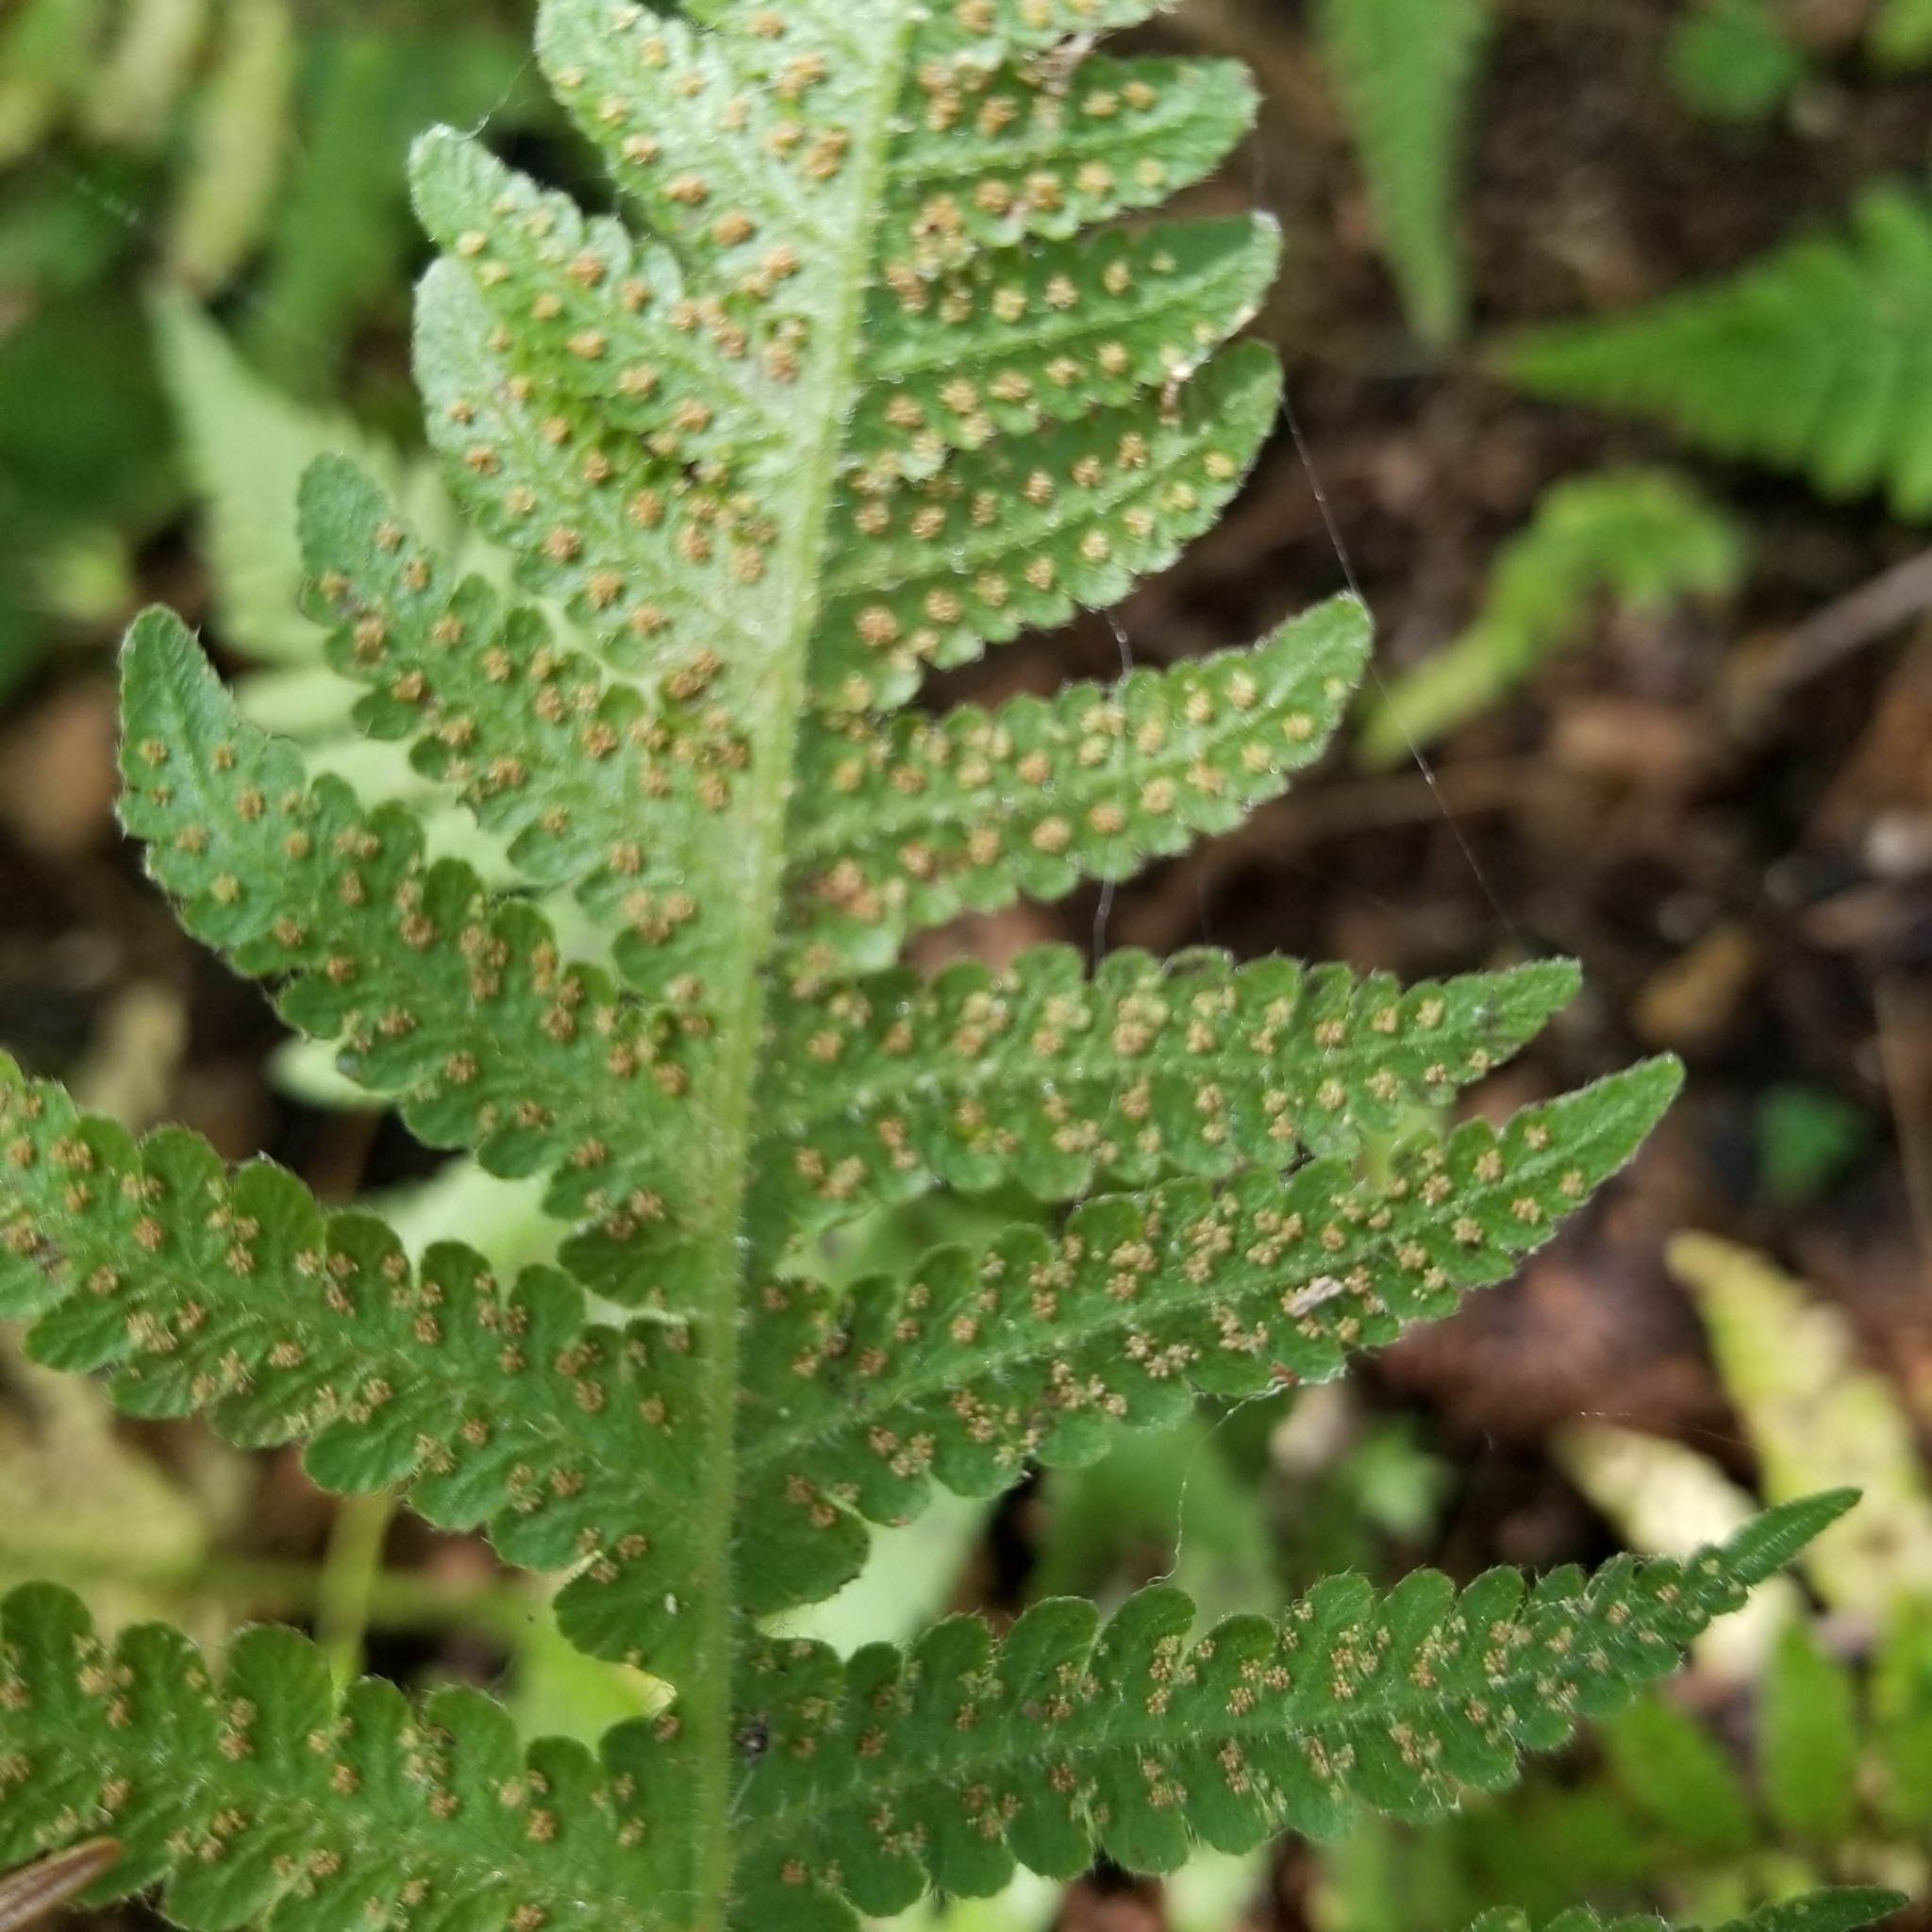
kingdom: Plantae
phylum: Tracheophyta
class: Polypodiopsida
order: Polypodiales
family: Thelypteridaceae
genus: Phegopteris
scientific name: Phegopteris connectilis
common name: Beech fern
